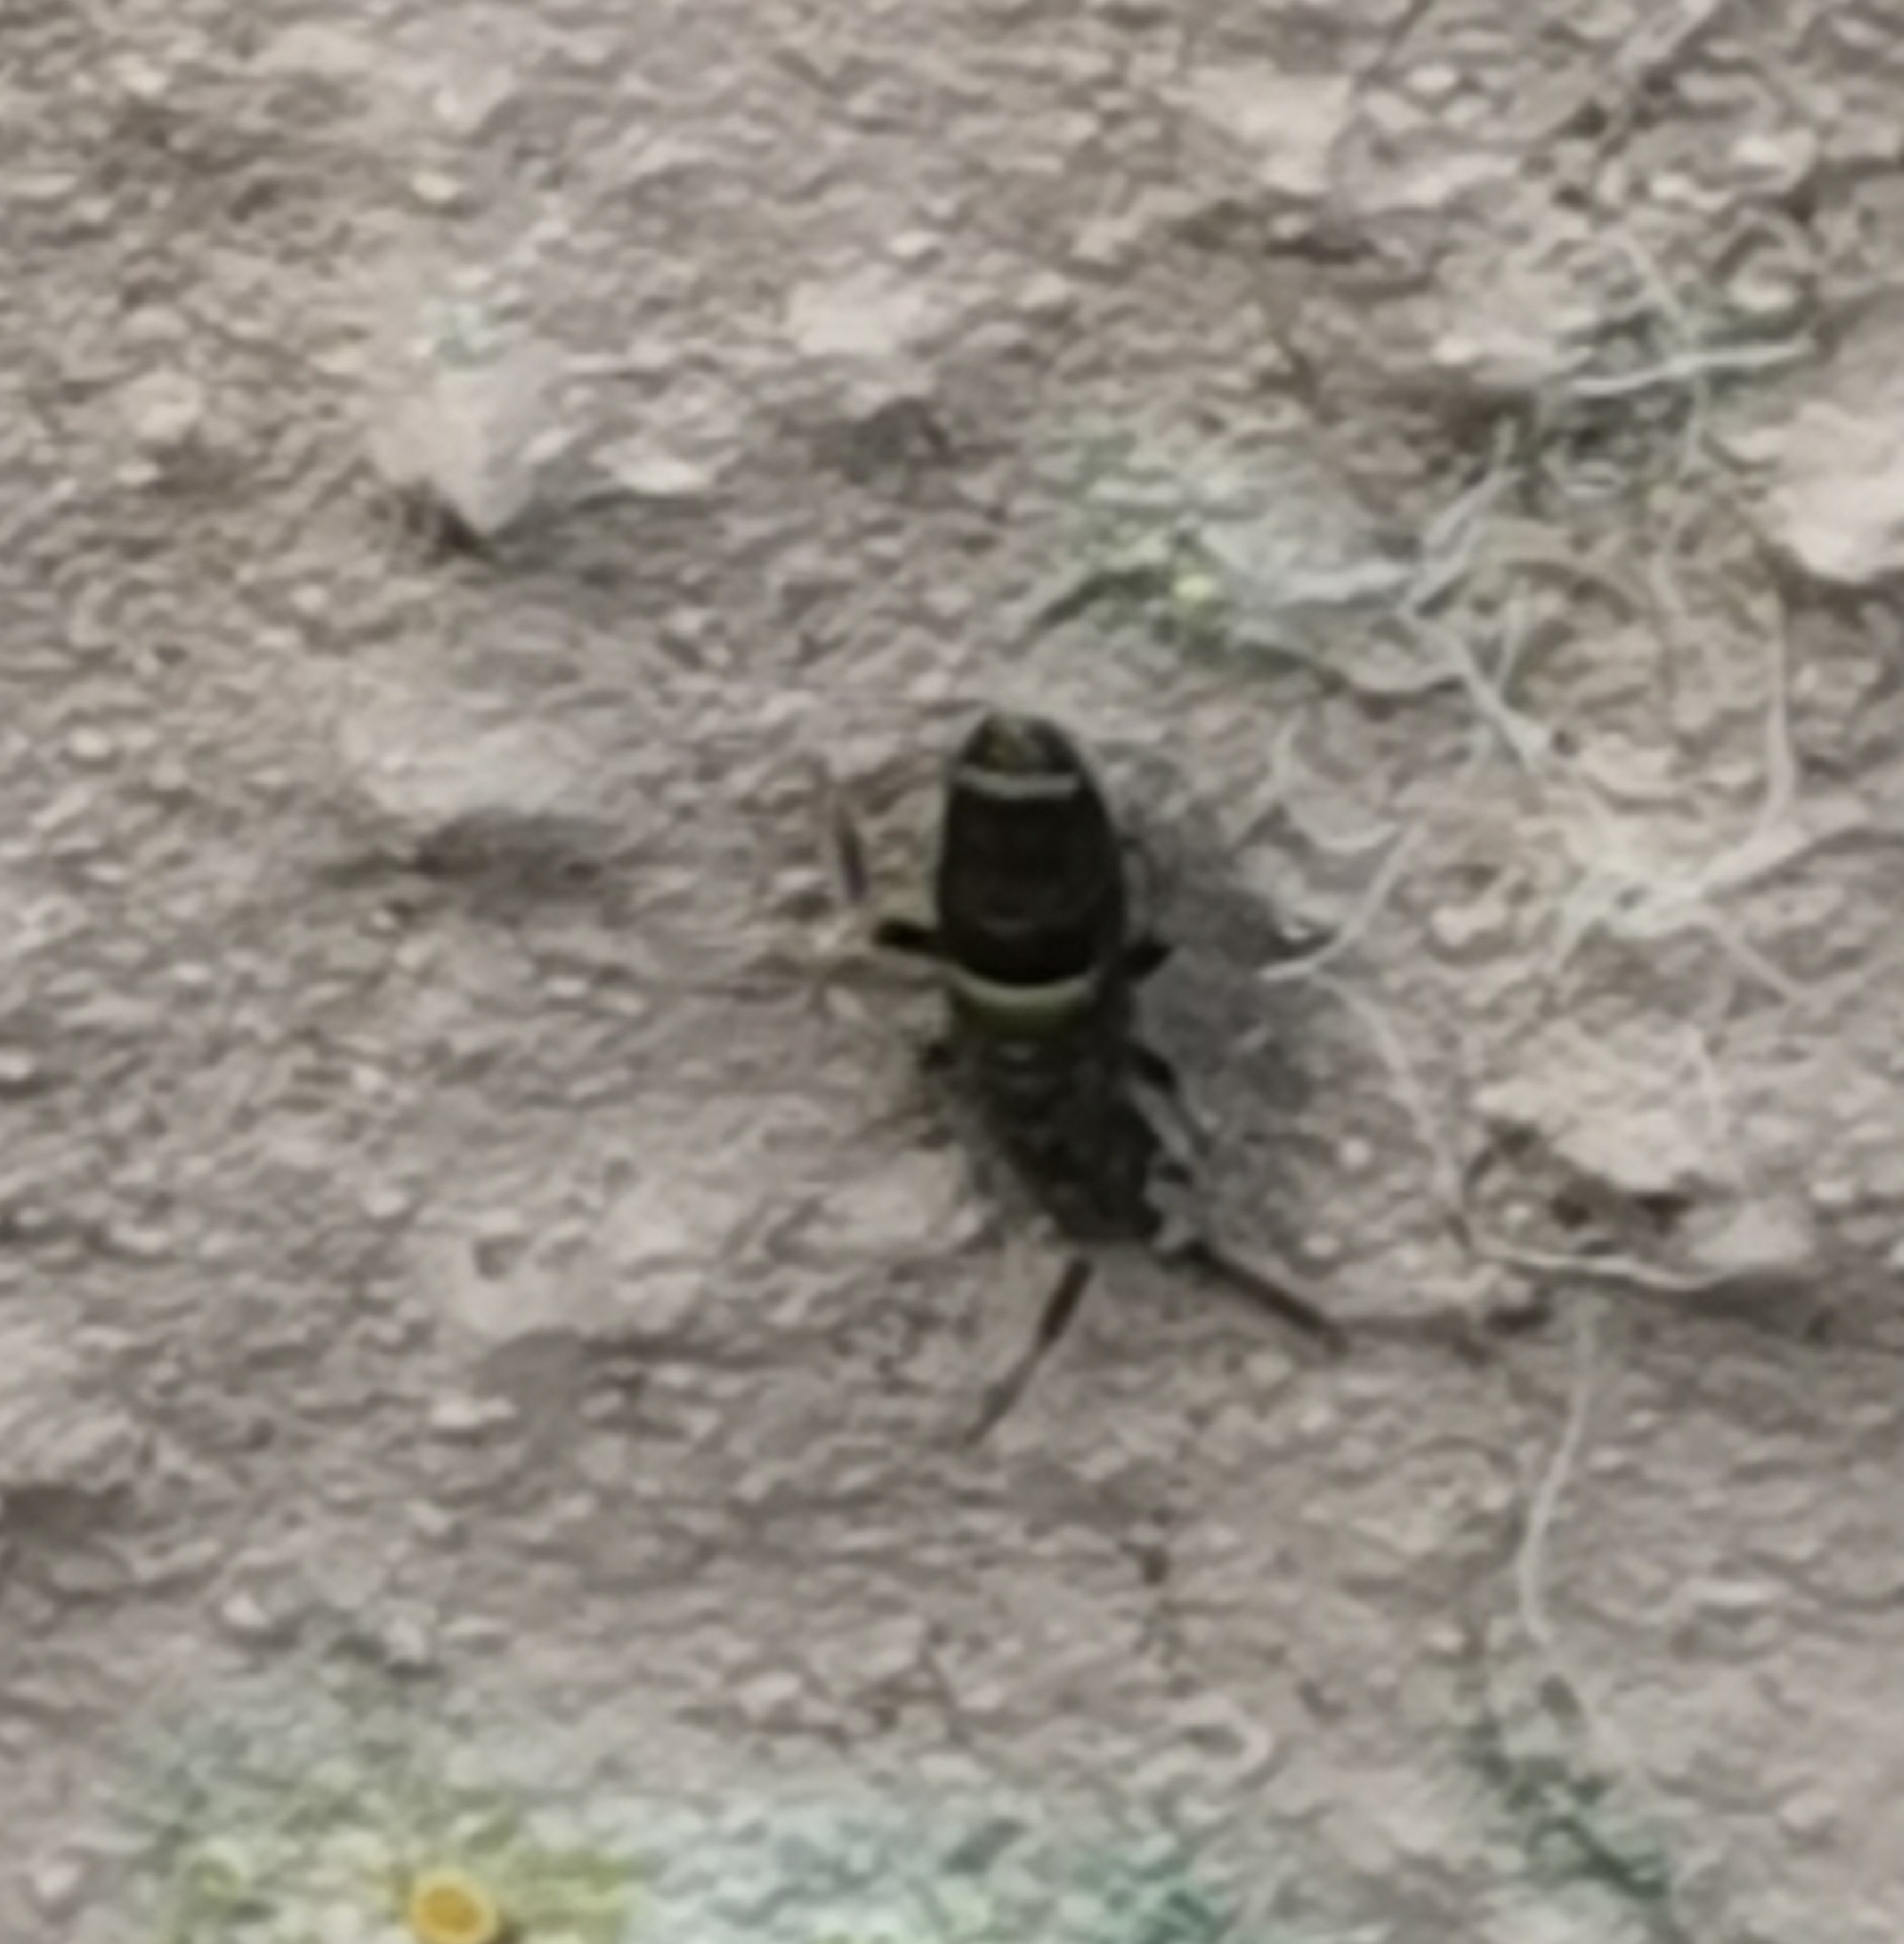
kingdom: Animalia
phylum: Arthropoda
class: Collembola
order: Entomobryomorpha
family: Orchesellidae
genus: Orchesella
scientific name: Orchesella cincta
